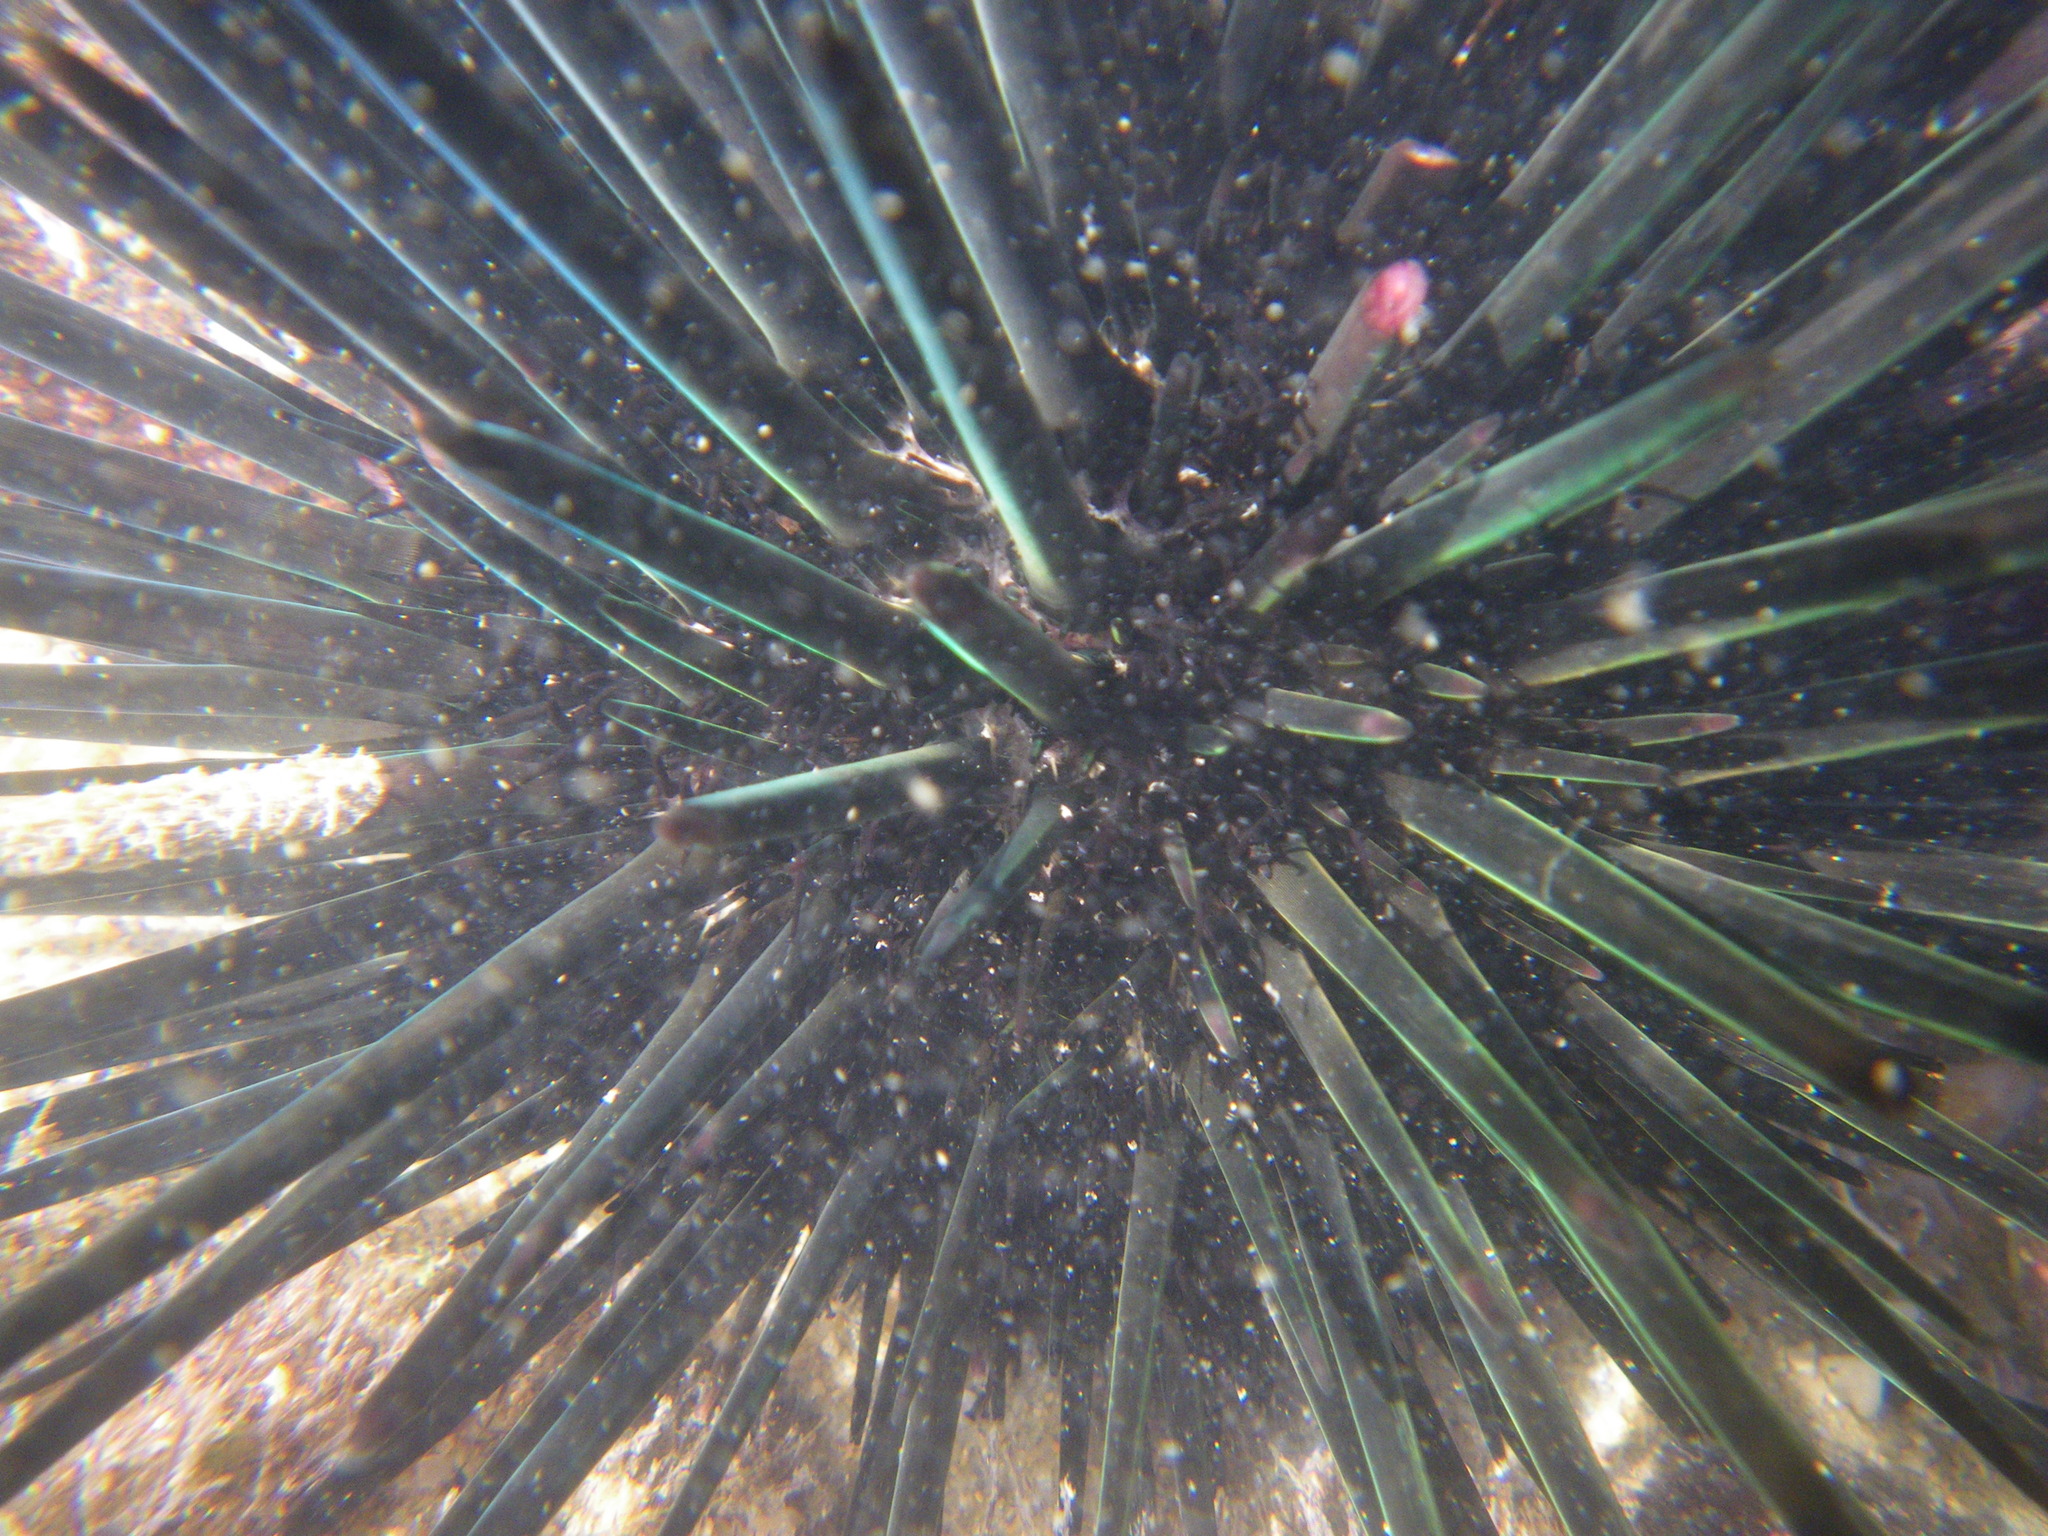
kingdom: Animalia
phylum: Echinodermata
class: Echinoidea
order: Stomopneustoida
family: Stomopneustidae
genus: Stomopneustes
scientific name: Stomopneustes variolaris
